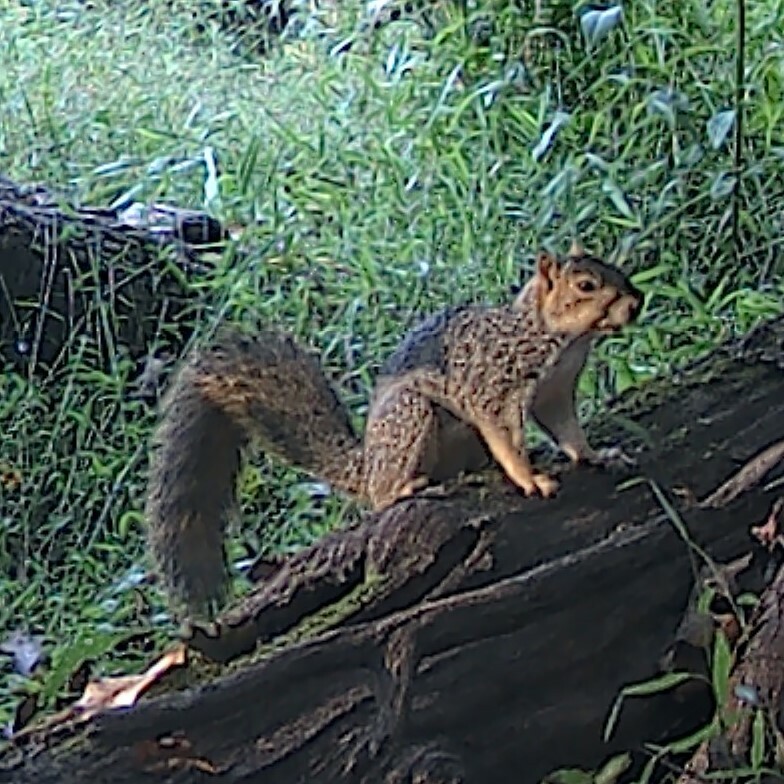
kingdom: Animalia
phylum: Chordata
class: Mammalia
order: Rodentia
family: Sciuridae
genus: Sciurus
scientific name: Sciurus niger
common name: Fox squirrel
